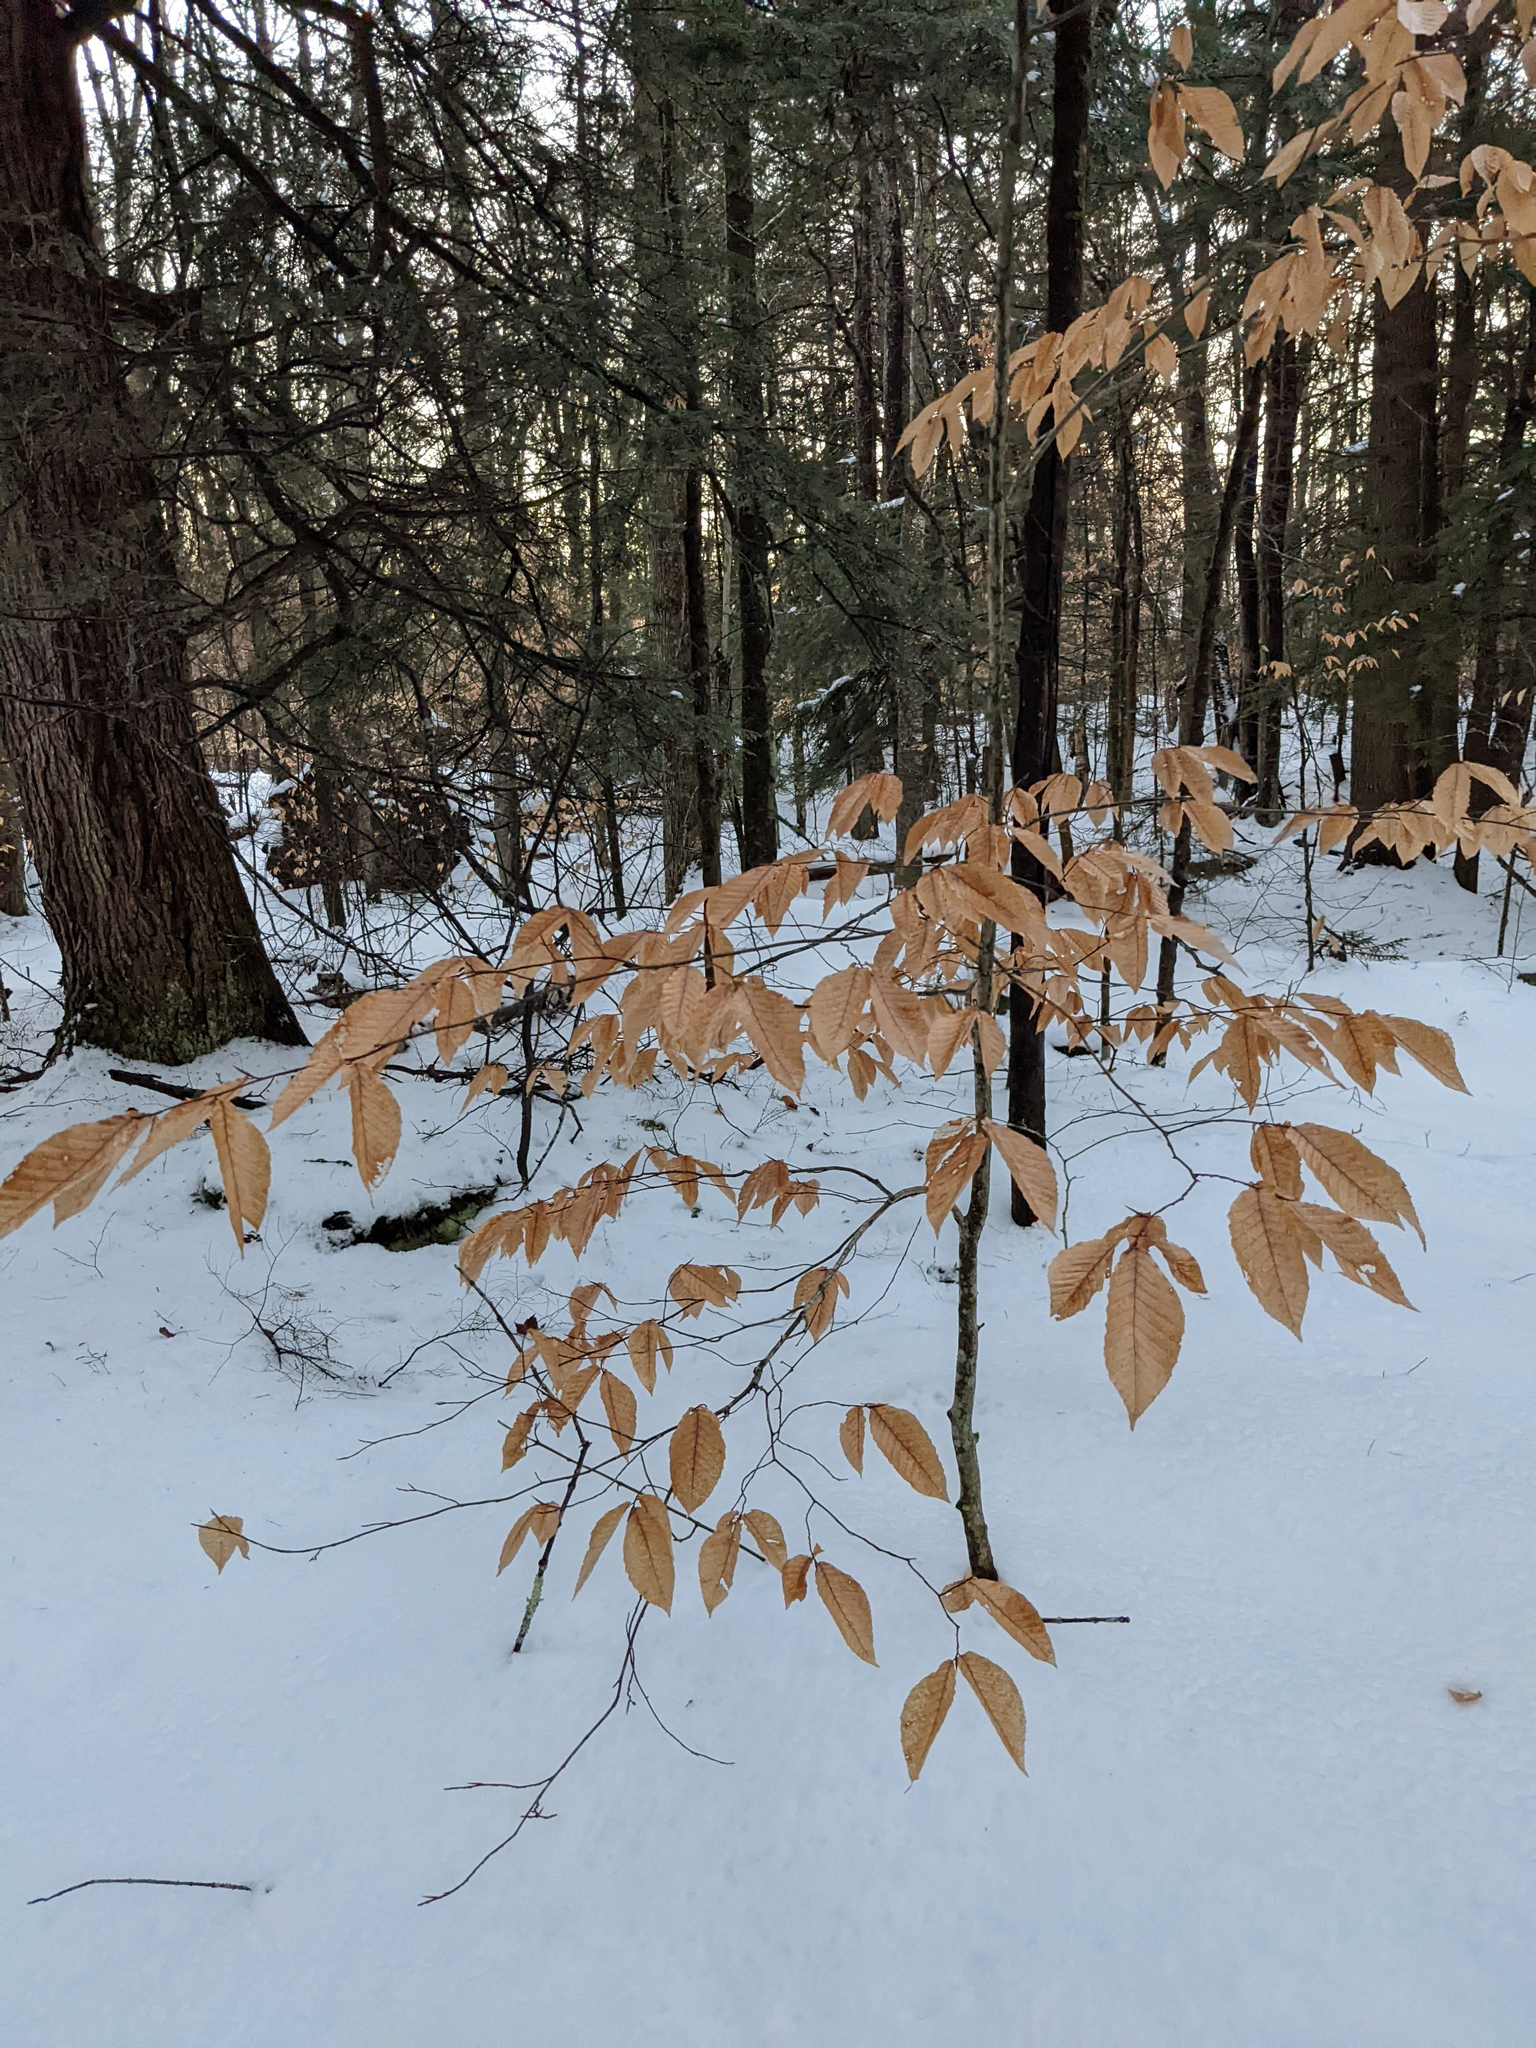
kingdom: Plantae
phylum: Tracheophyta
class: Magnoliopsida
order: Fagales
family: Fagaceae
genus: Fagus
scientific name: Fagus grandifolia
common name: American beech
